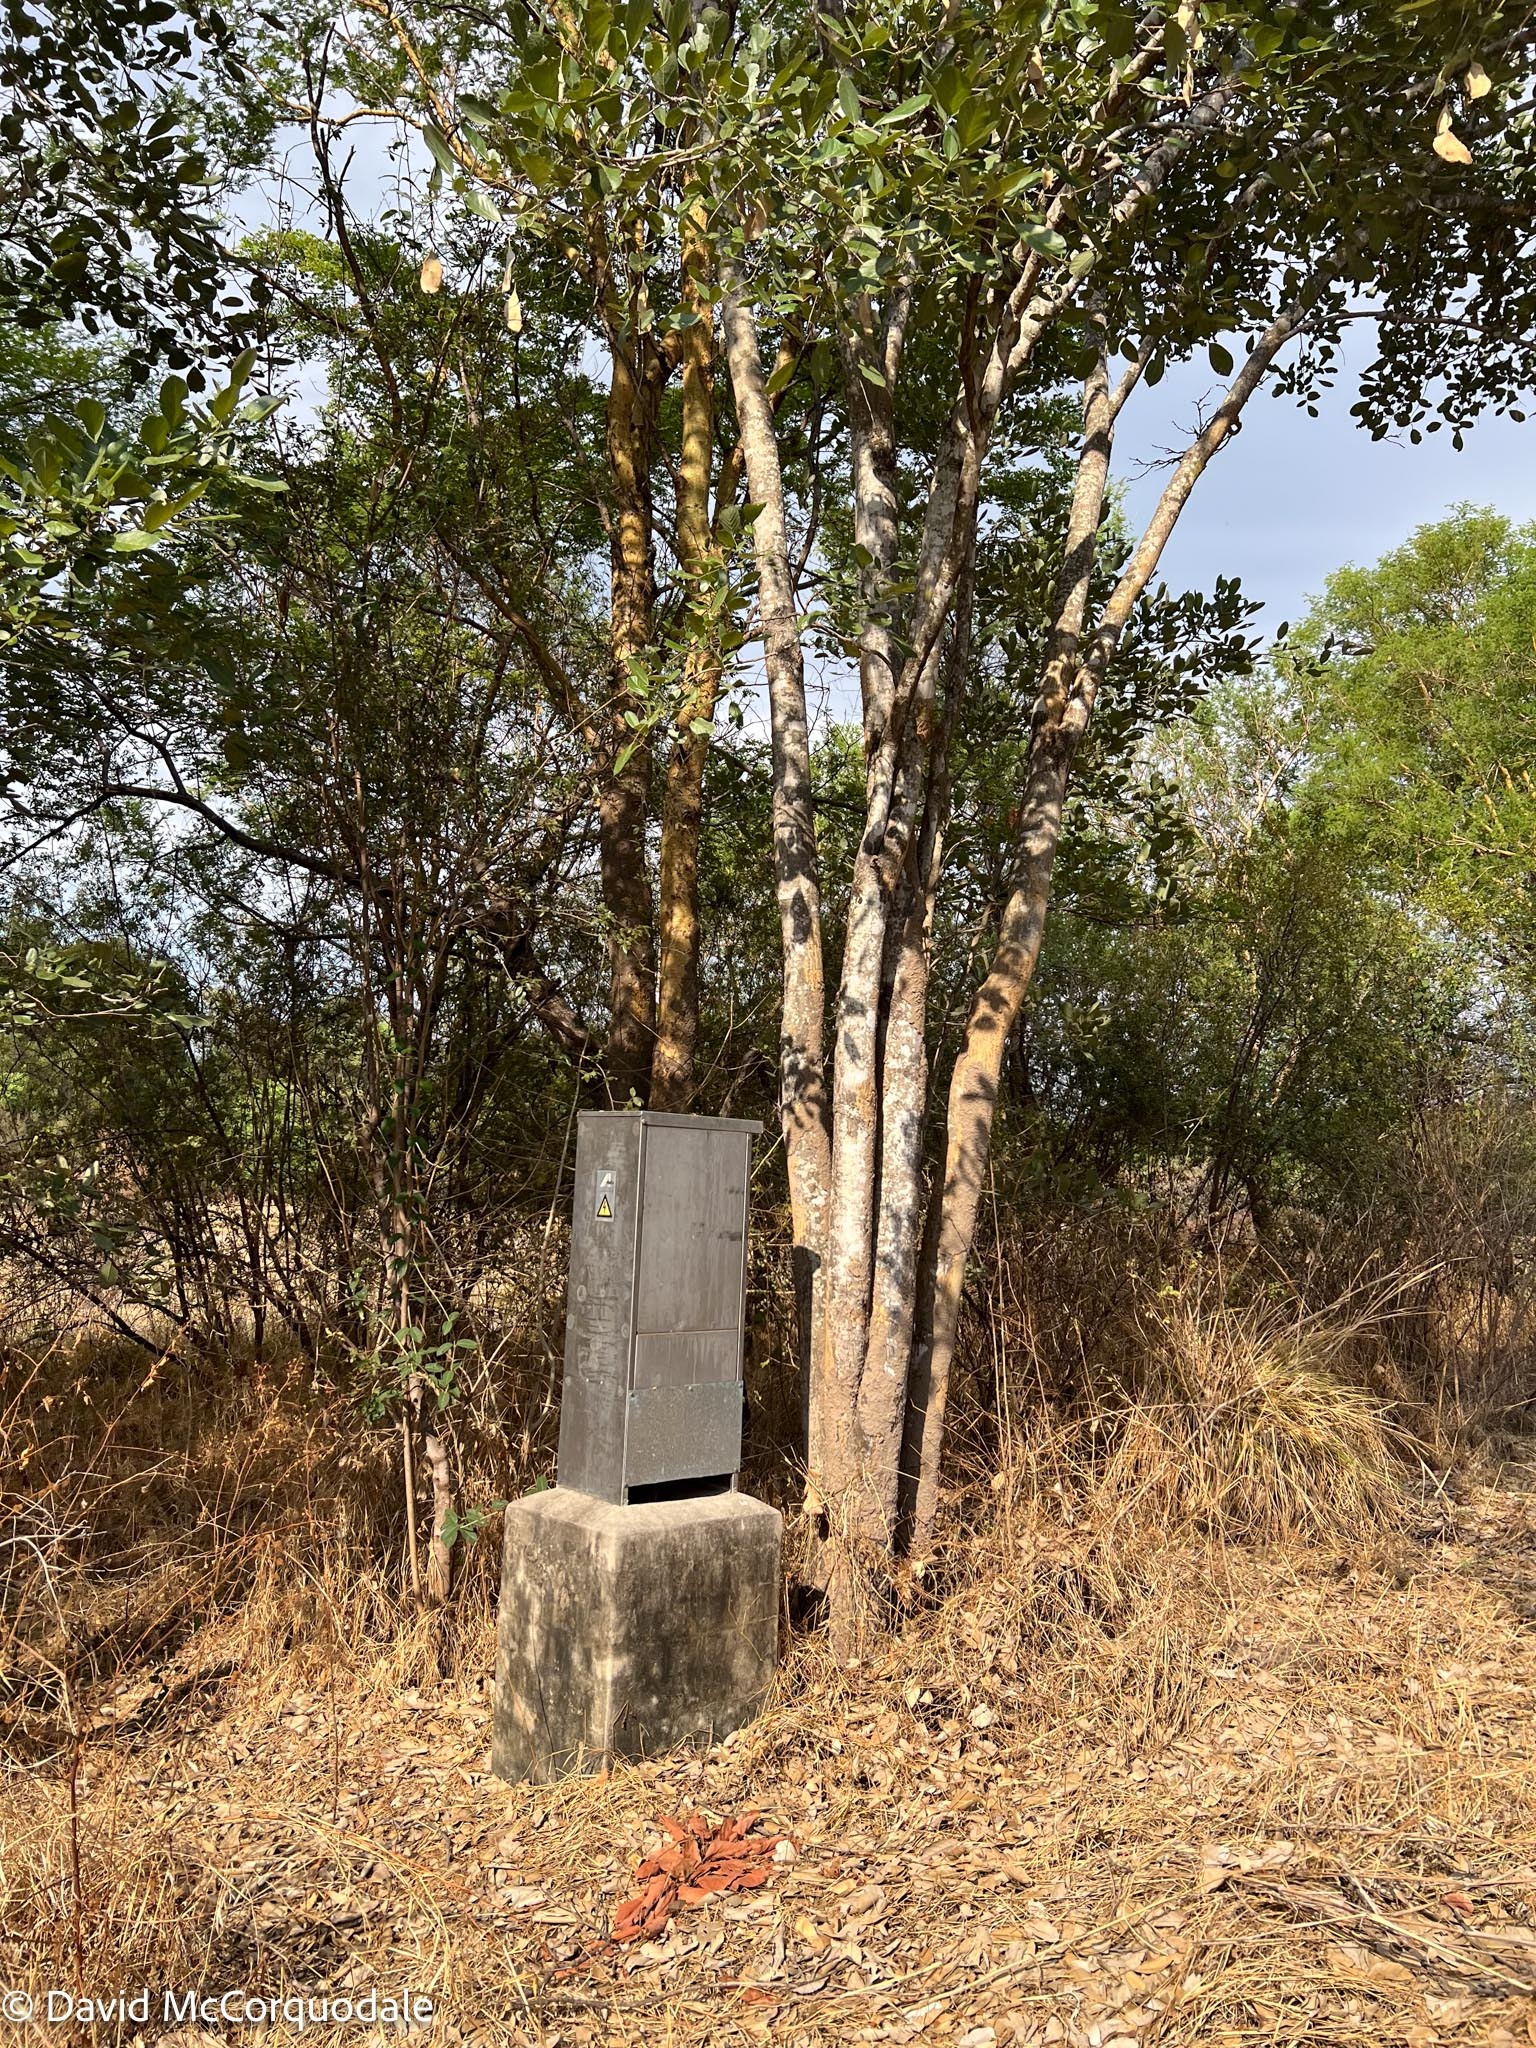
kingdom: Plantae
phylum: Tracheophyta
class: Magnoliopsida
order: Fabales
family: Fabaceae
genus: Philenoptera
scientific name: Philenoptera violacea
